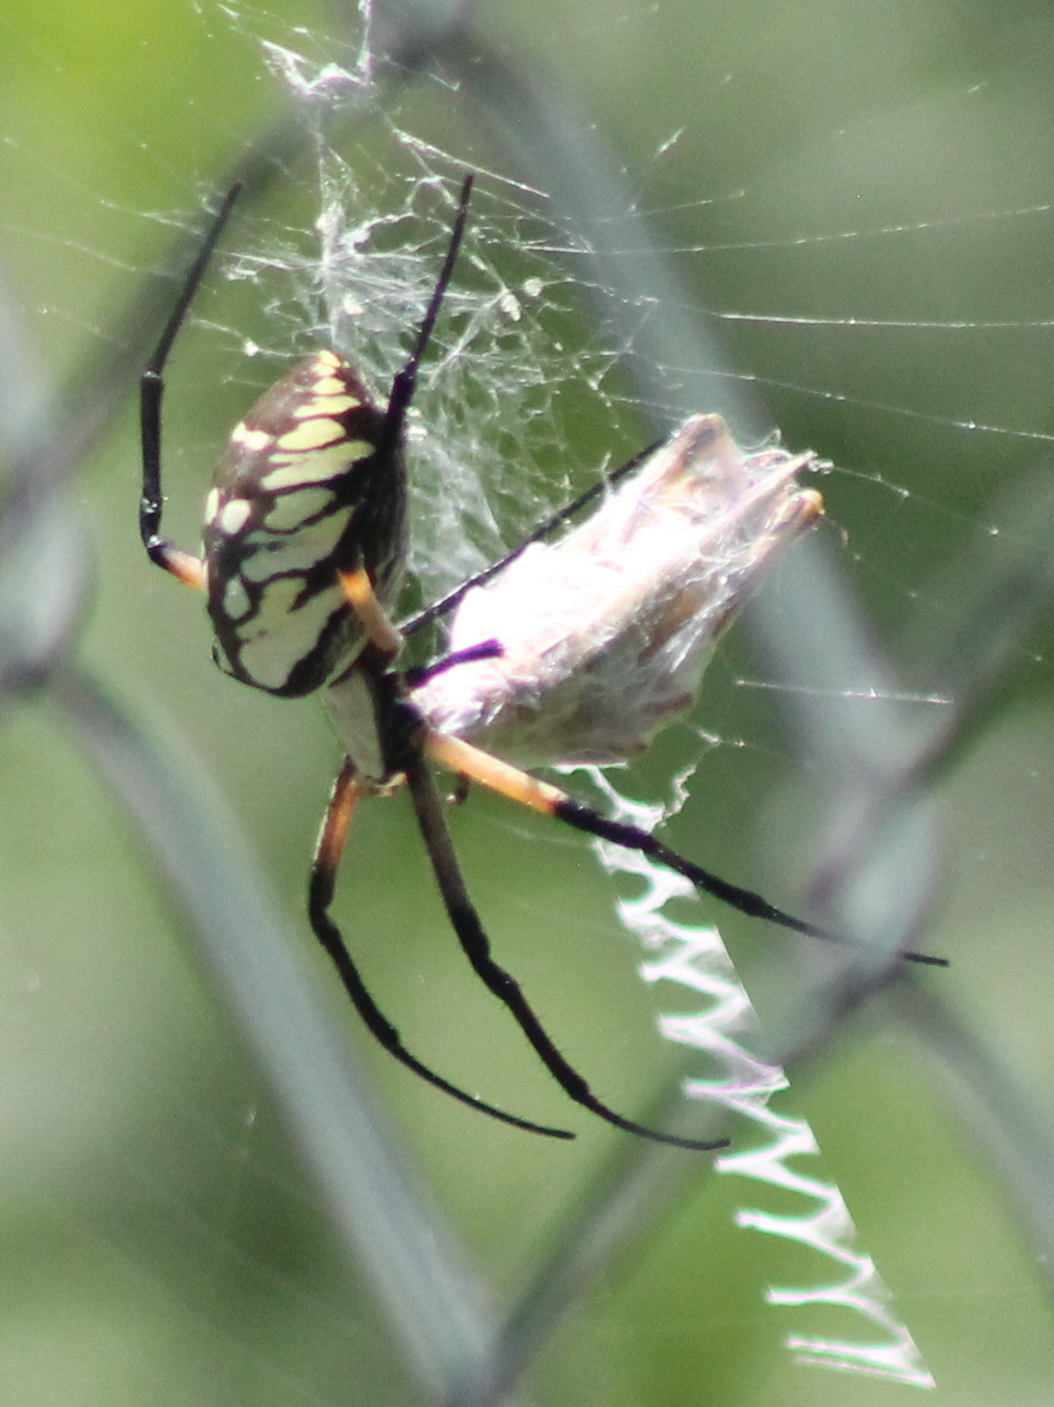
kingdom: Animalia
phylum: Arthropoda
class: Arachnida
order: Araneae
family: Araneidae
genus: Argiope
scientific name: Argiope aurantia
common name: Orb weavers
